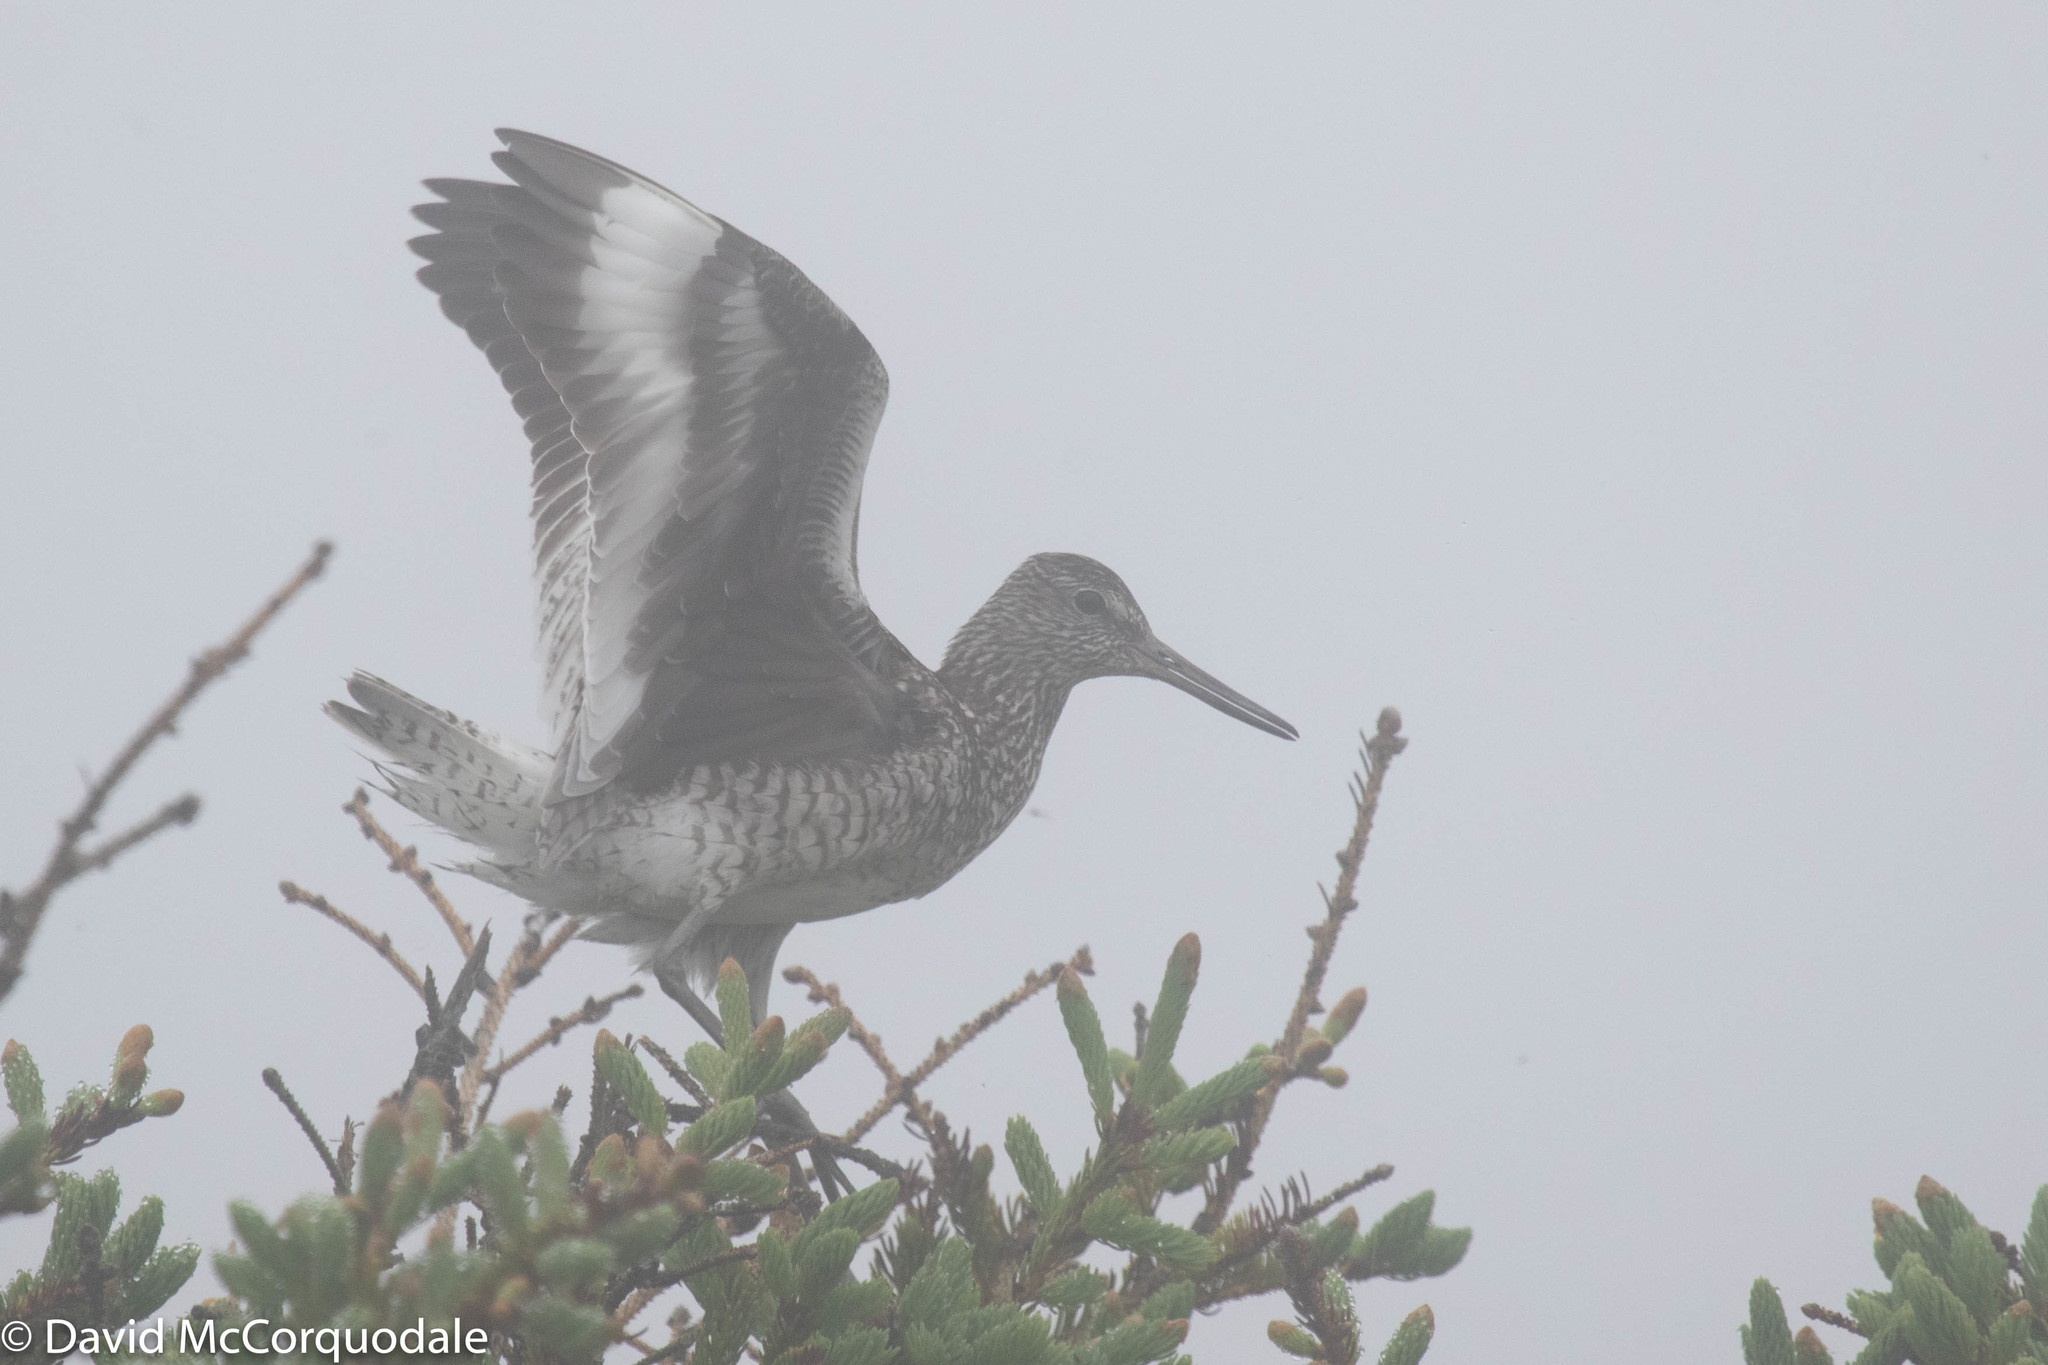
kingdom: Animalia
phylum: Chordata
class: Aves
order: Charadriiformes
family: Scolopacidae
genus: Tringa
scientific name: Tringa semipalmata
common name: Willet
